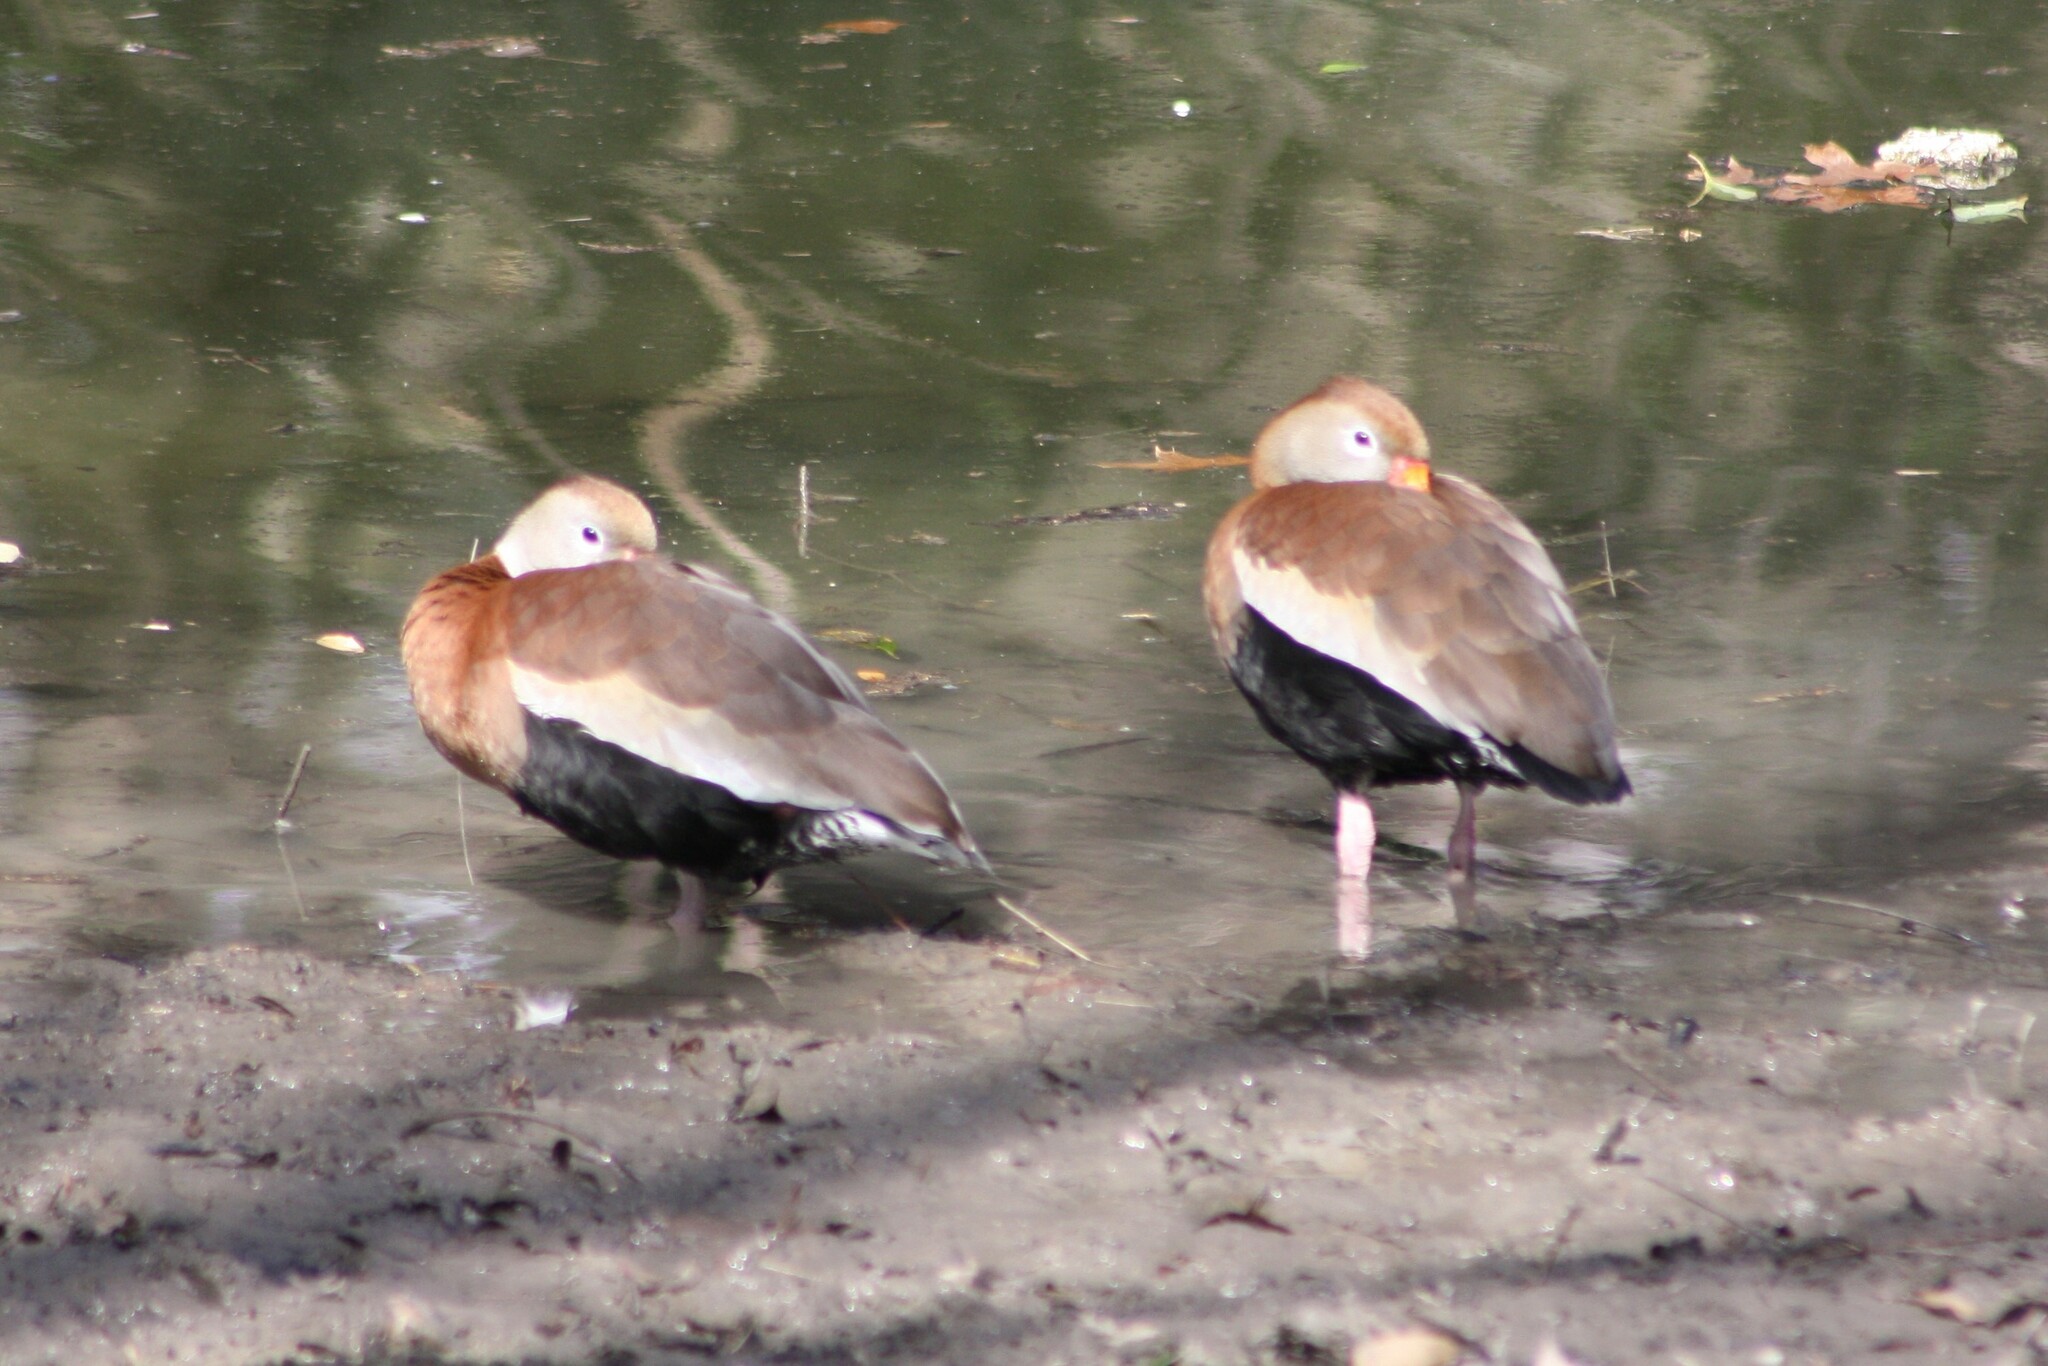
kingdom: Animalia
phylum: Chordata
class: Aves
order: Anseriformes
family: Anatidae
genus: Dendrocygna
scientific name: Dendrocygna autumnalis
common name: Black-bellied whistling duck
